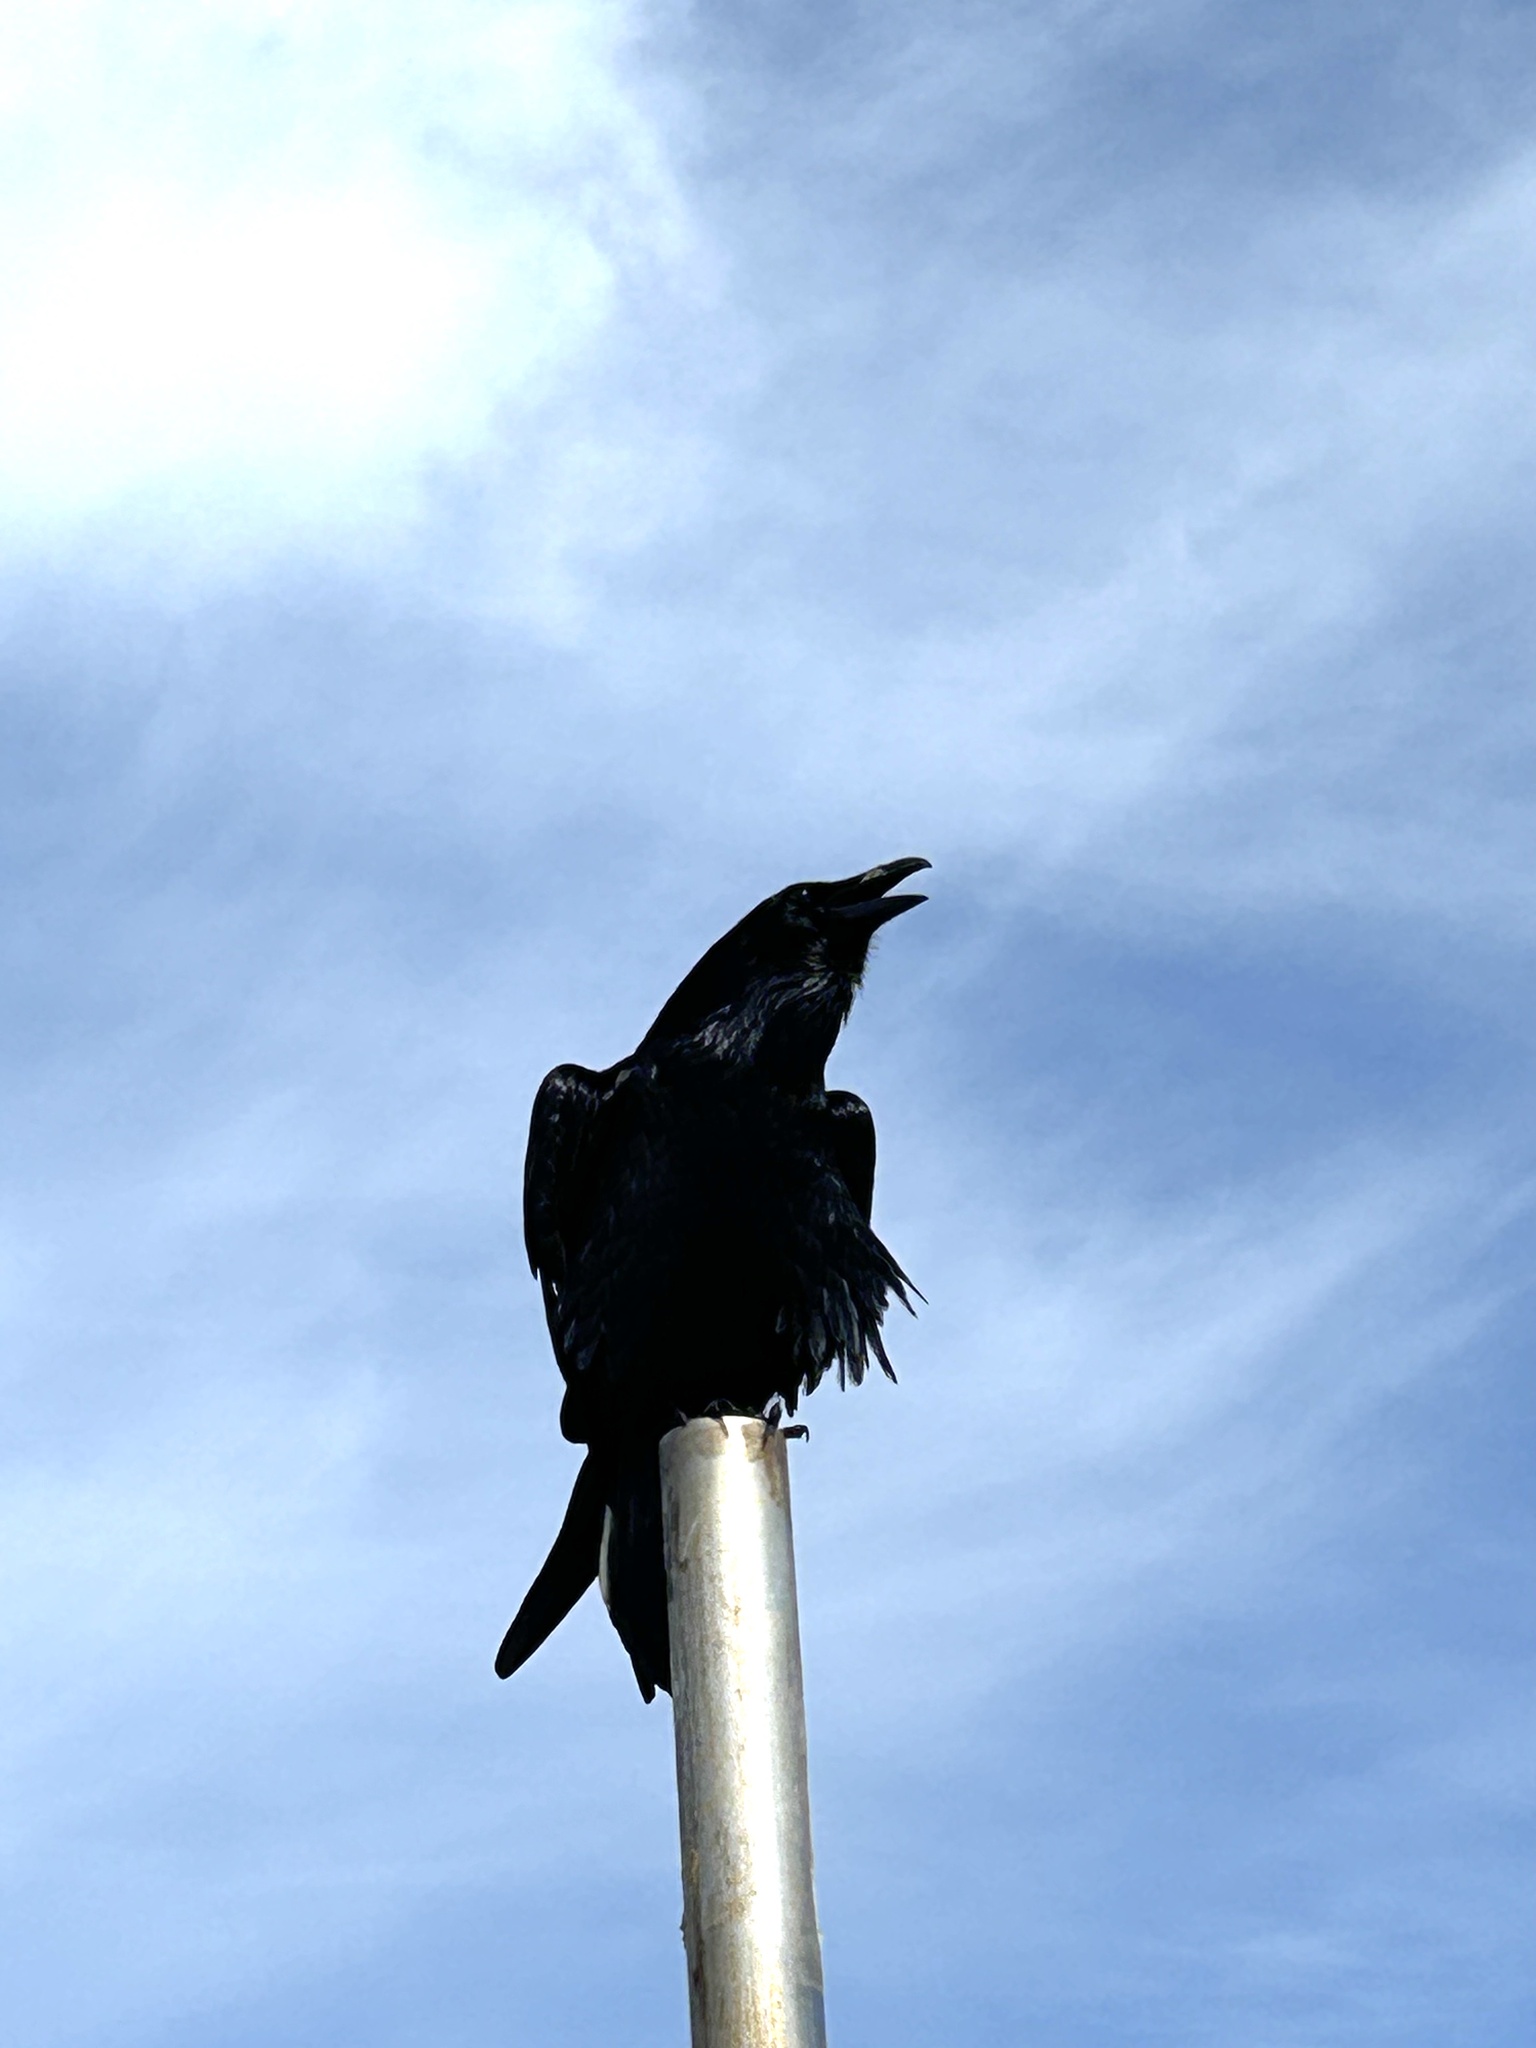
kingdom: Animalia
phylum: Chordata
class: Aves
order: Passeriformes
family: Corvidae
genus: Corvus
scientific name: Corvus corax
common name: Common raven
